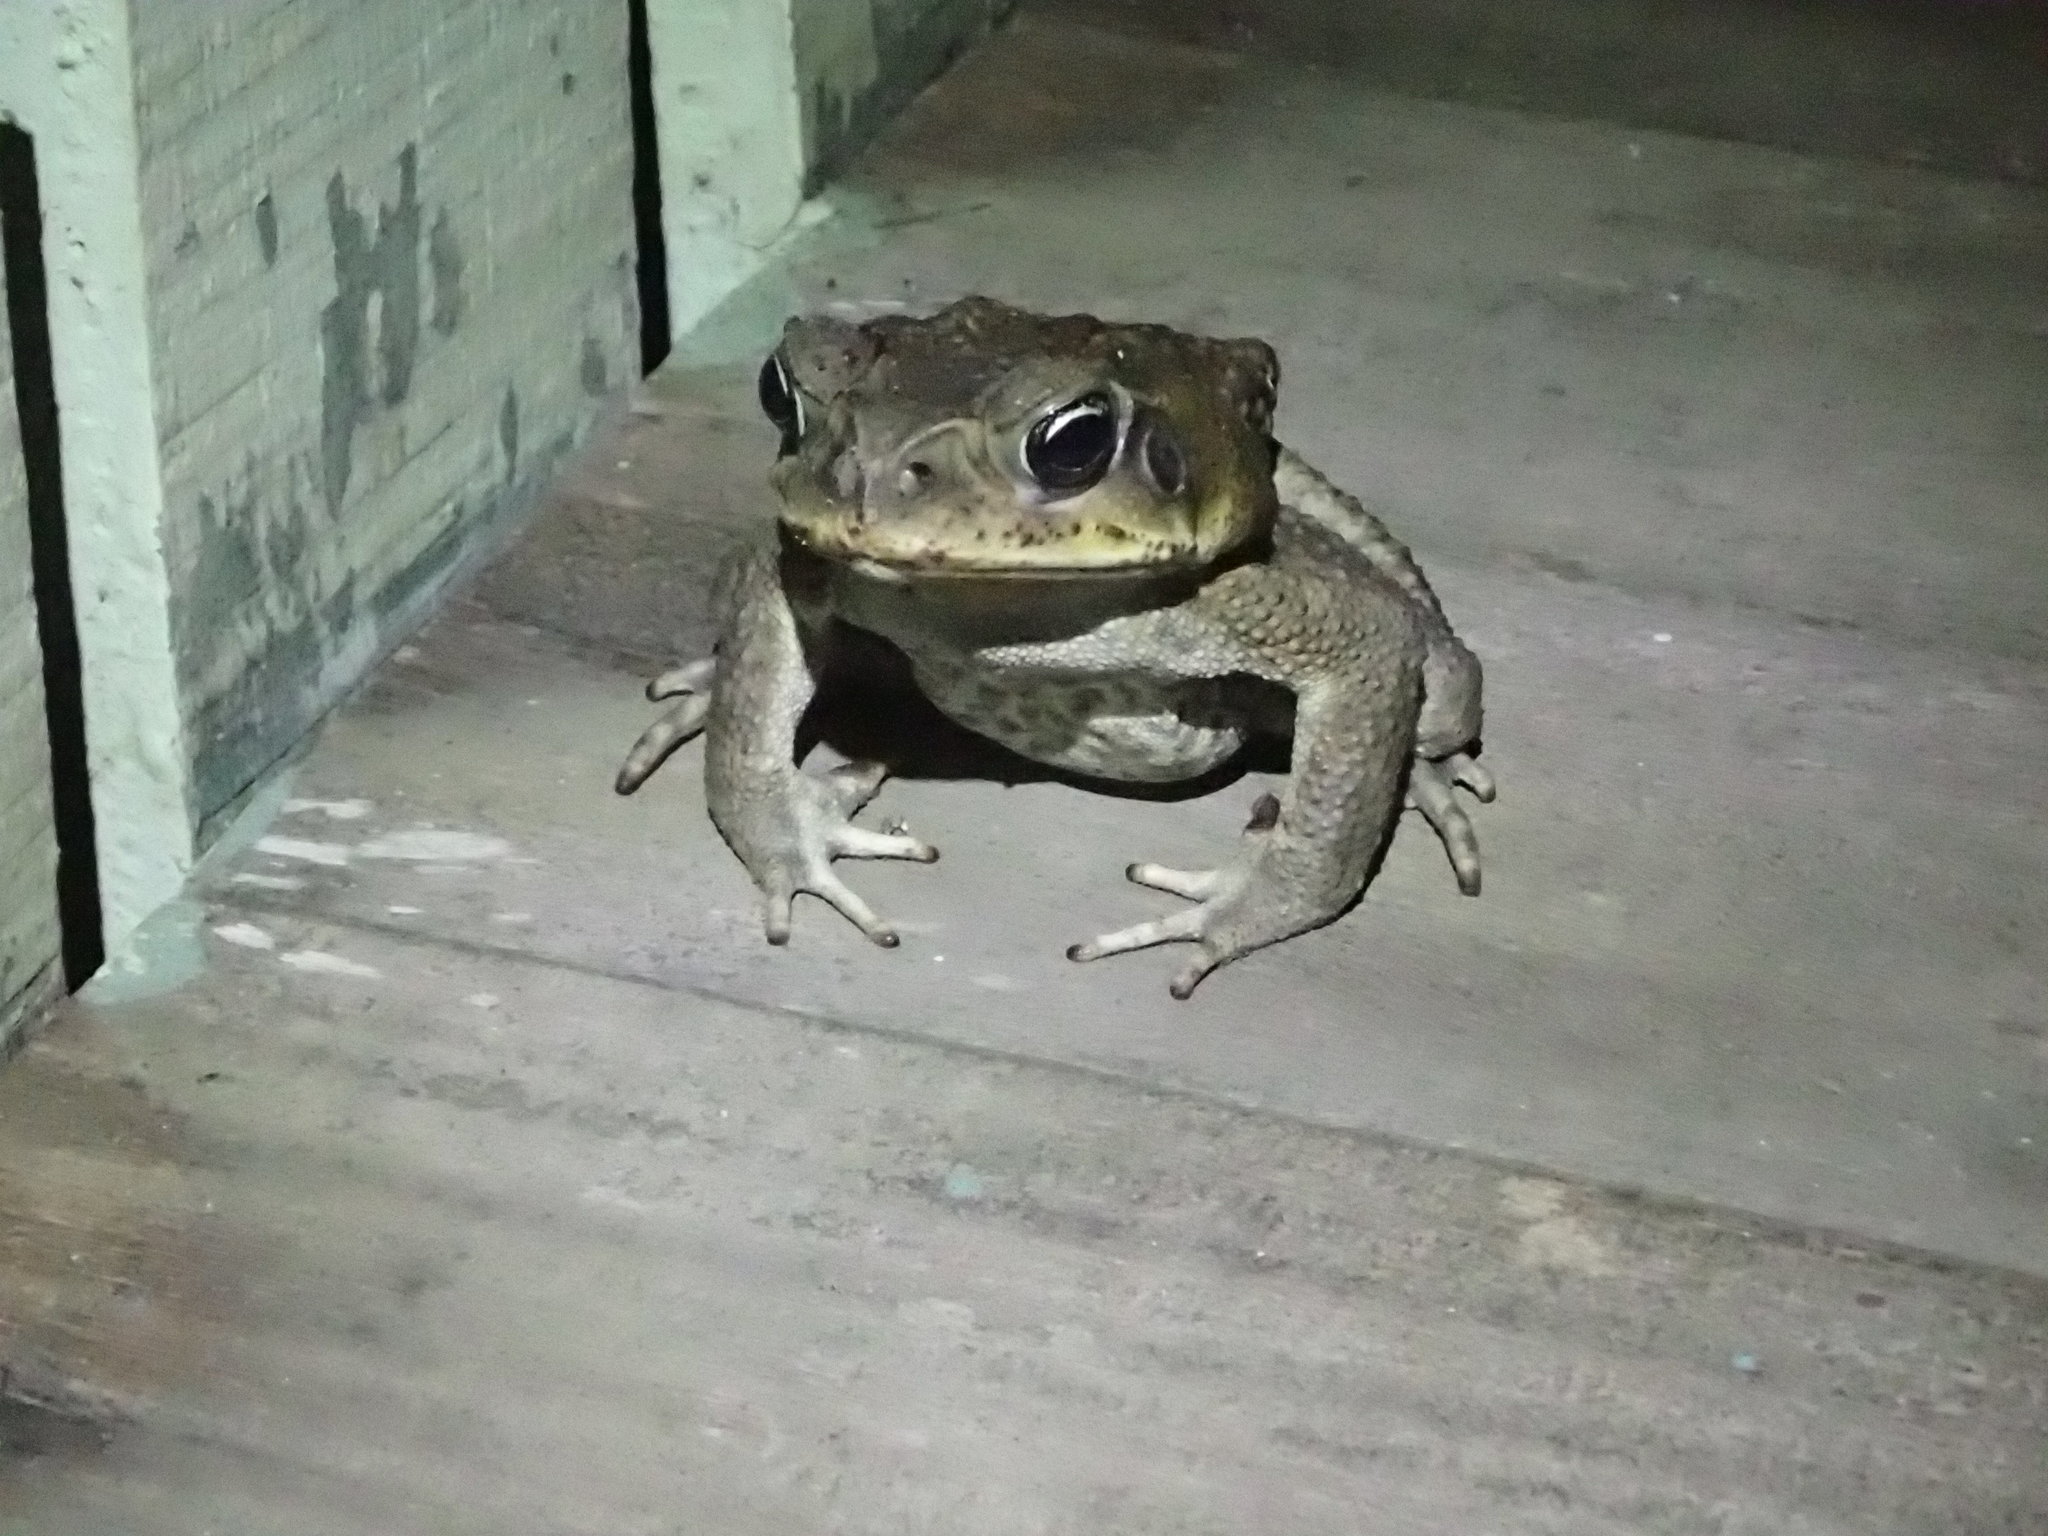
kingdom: Animalia
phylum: Chordata
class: Amphibia
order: Anura
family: Bufonidae
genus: Rhinella
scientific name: Rhinella horribilis
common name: Mesoamerican cane toad
